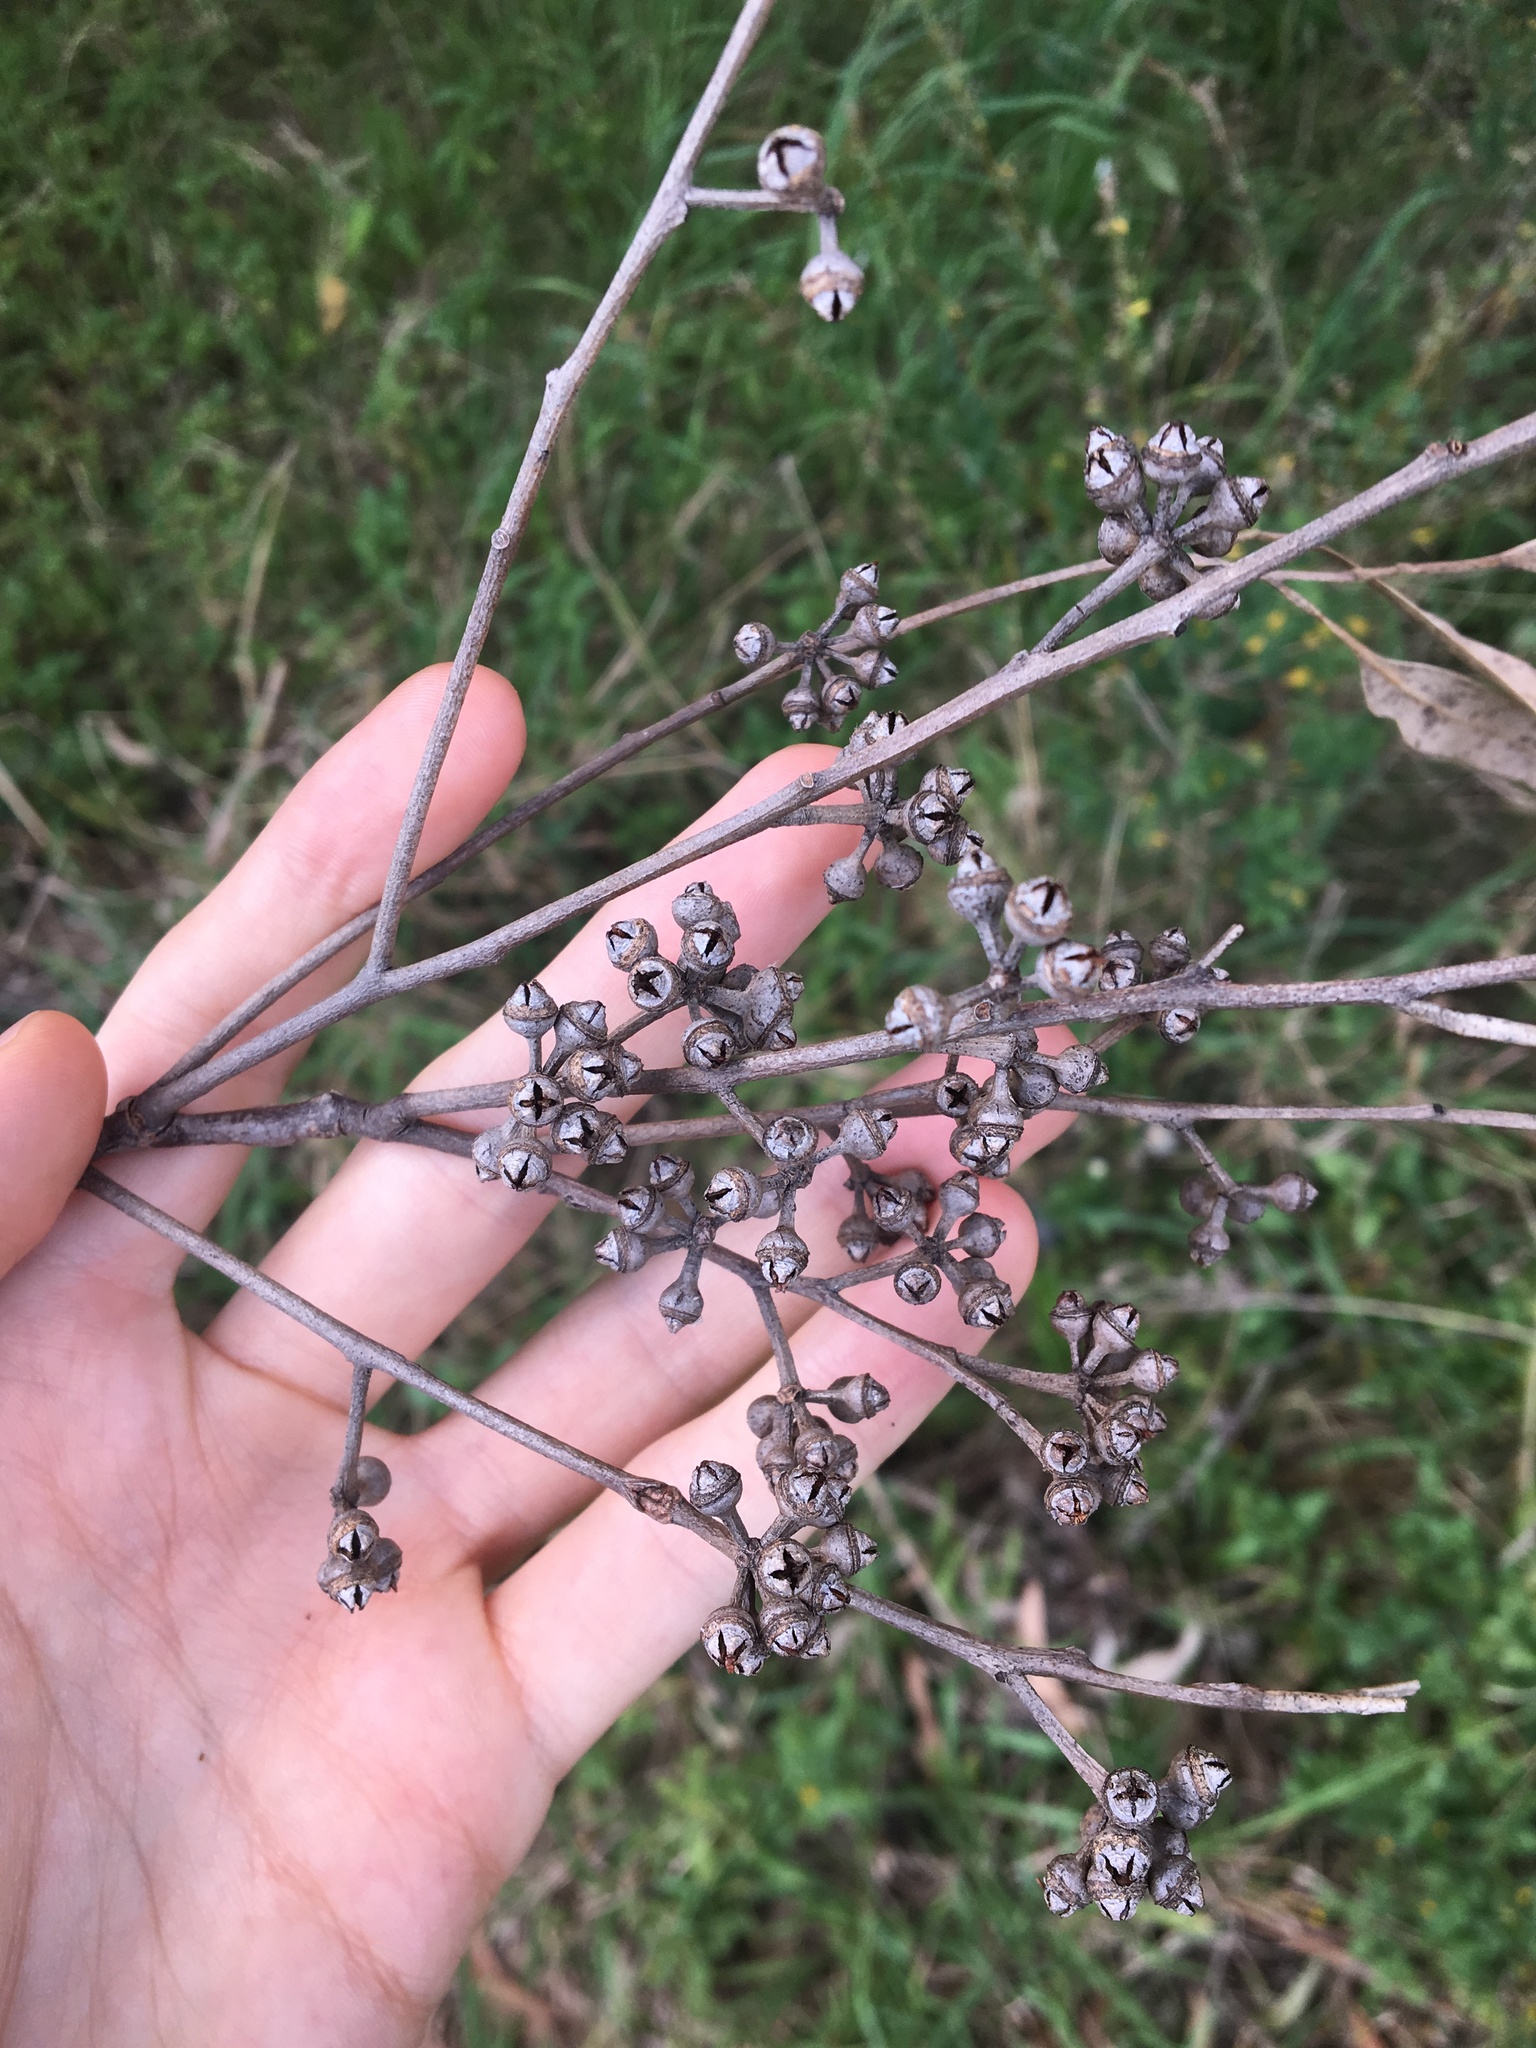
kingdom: Plantae
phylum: Tracheophyta
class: Magnoliopsida
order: Myrtales
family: Myrtaceae
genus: Eucalyptus
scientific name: Eucalyptus amplifolia
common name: Cabbage gum
